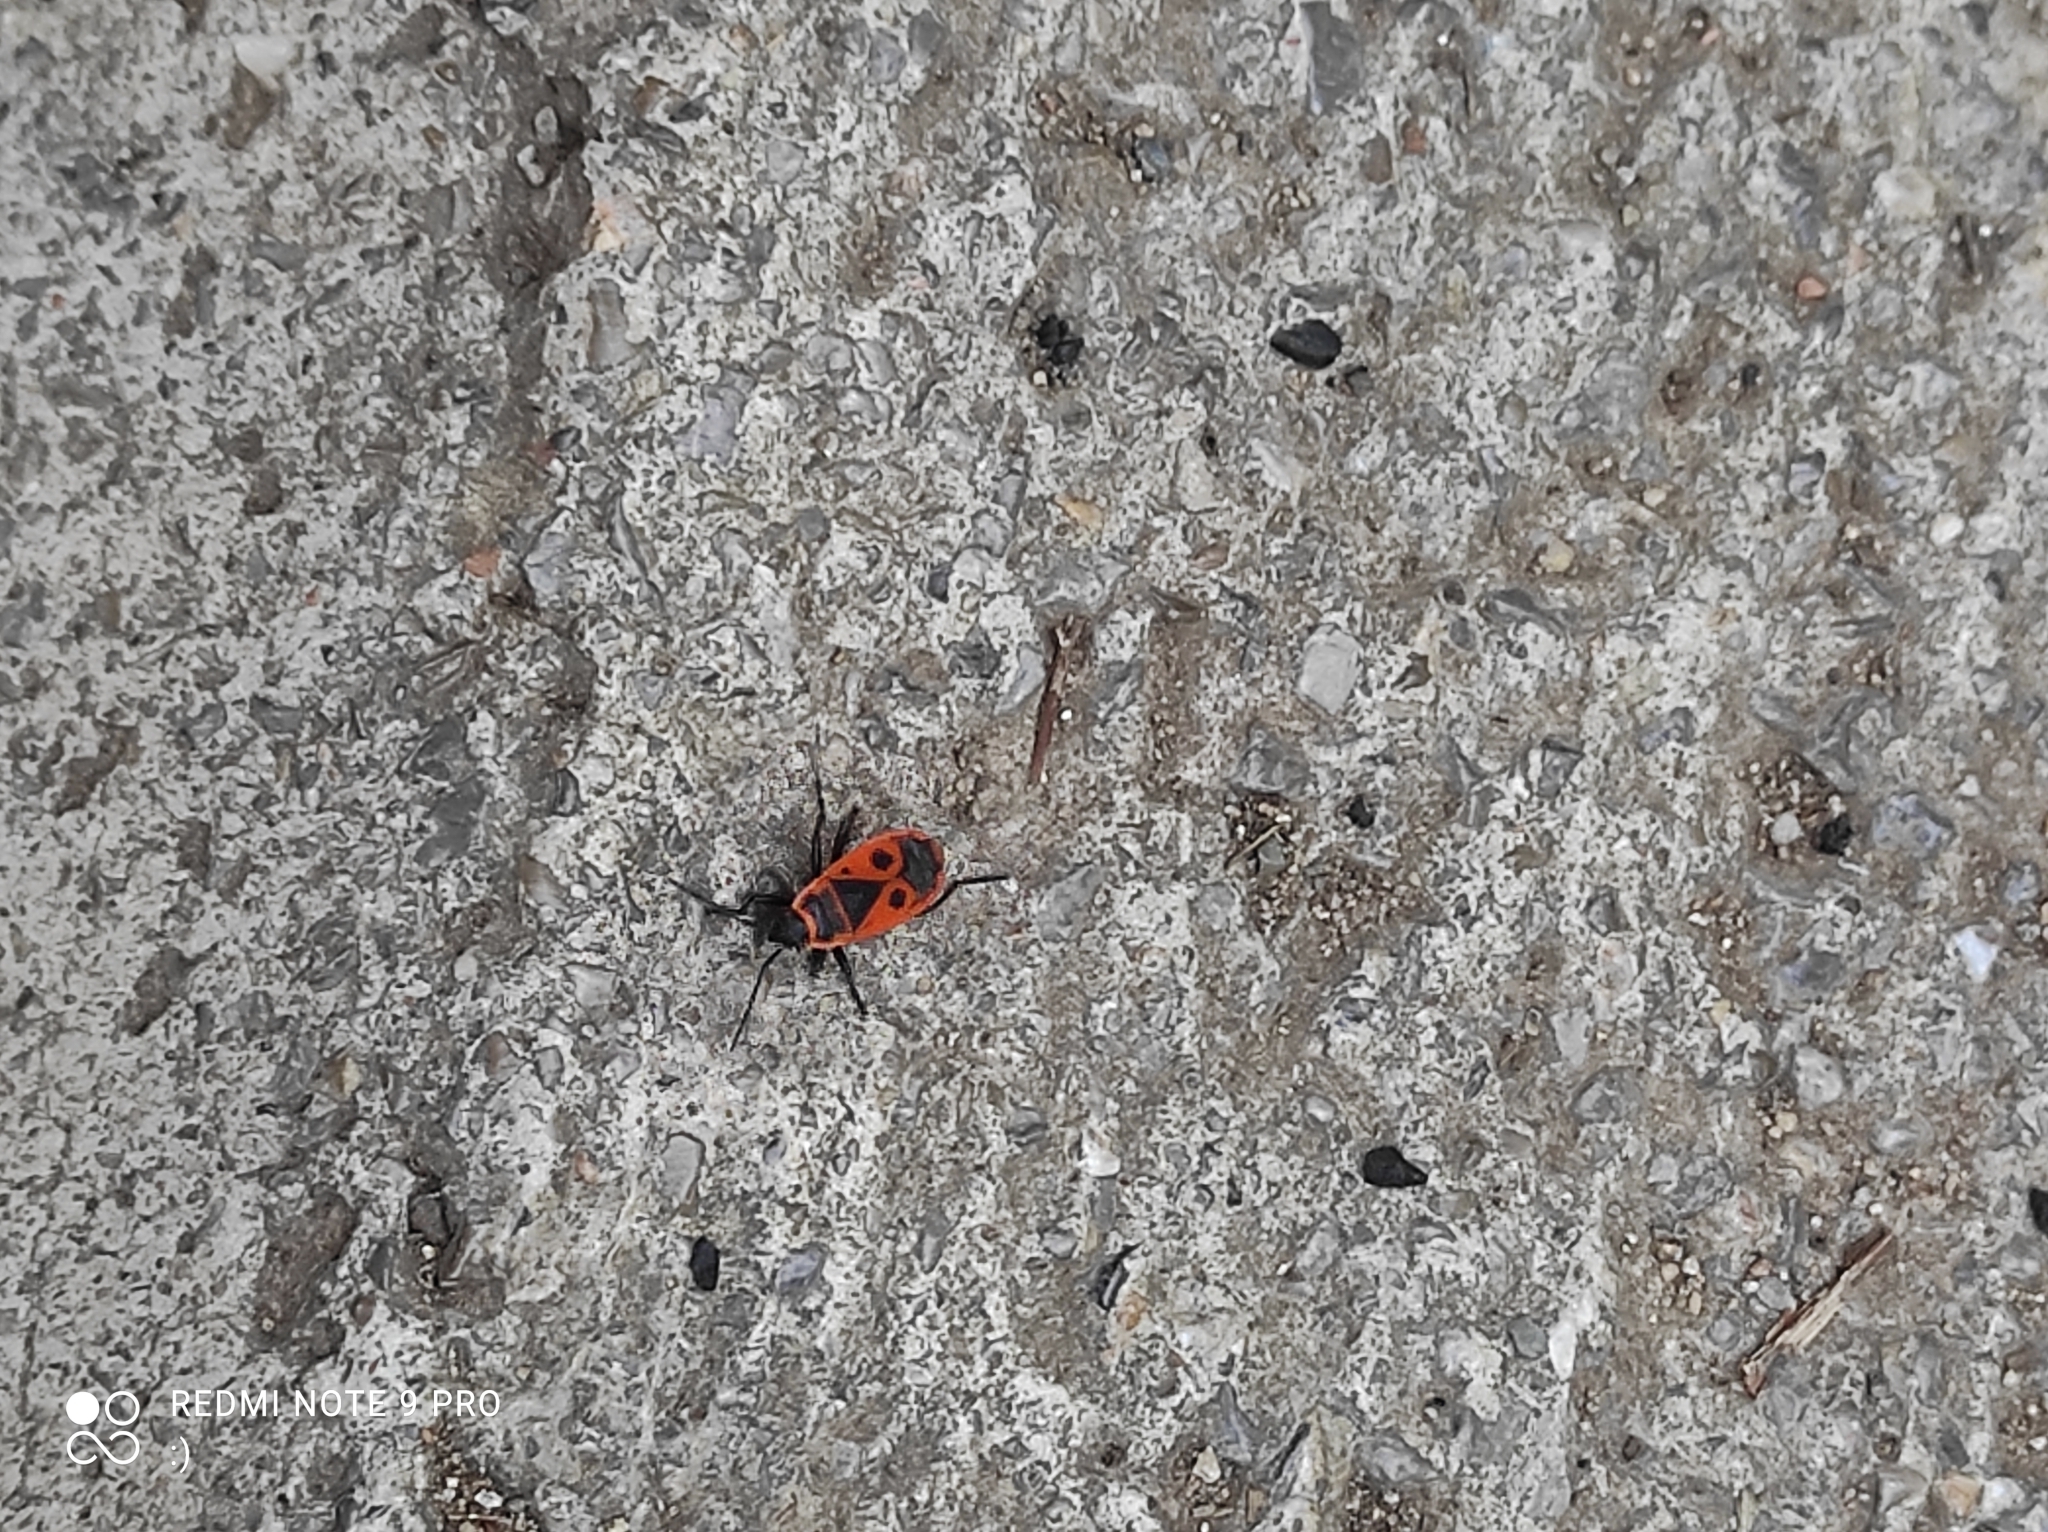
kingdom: Animalia
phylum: Arthropoda
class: Insecta
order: Hemiptera
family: Pyrrhocoridae
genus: Pyrrhocoris
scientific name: Pyrrhocoris apterus
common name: Firebug
